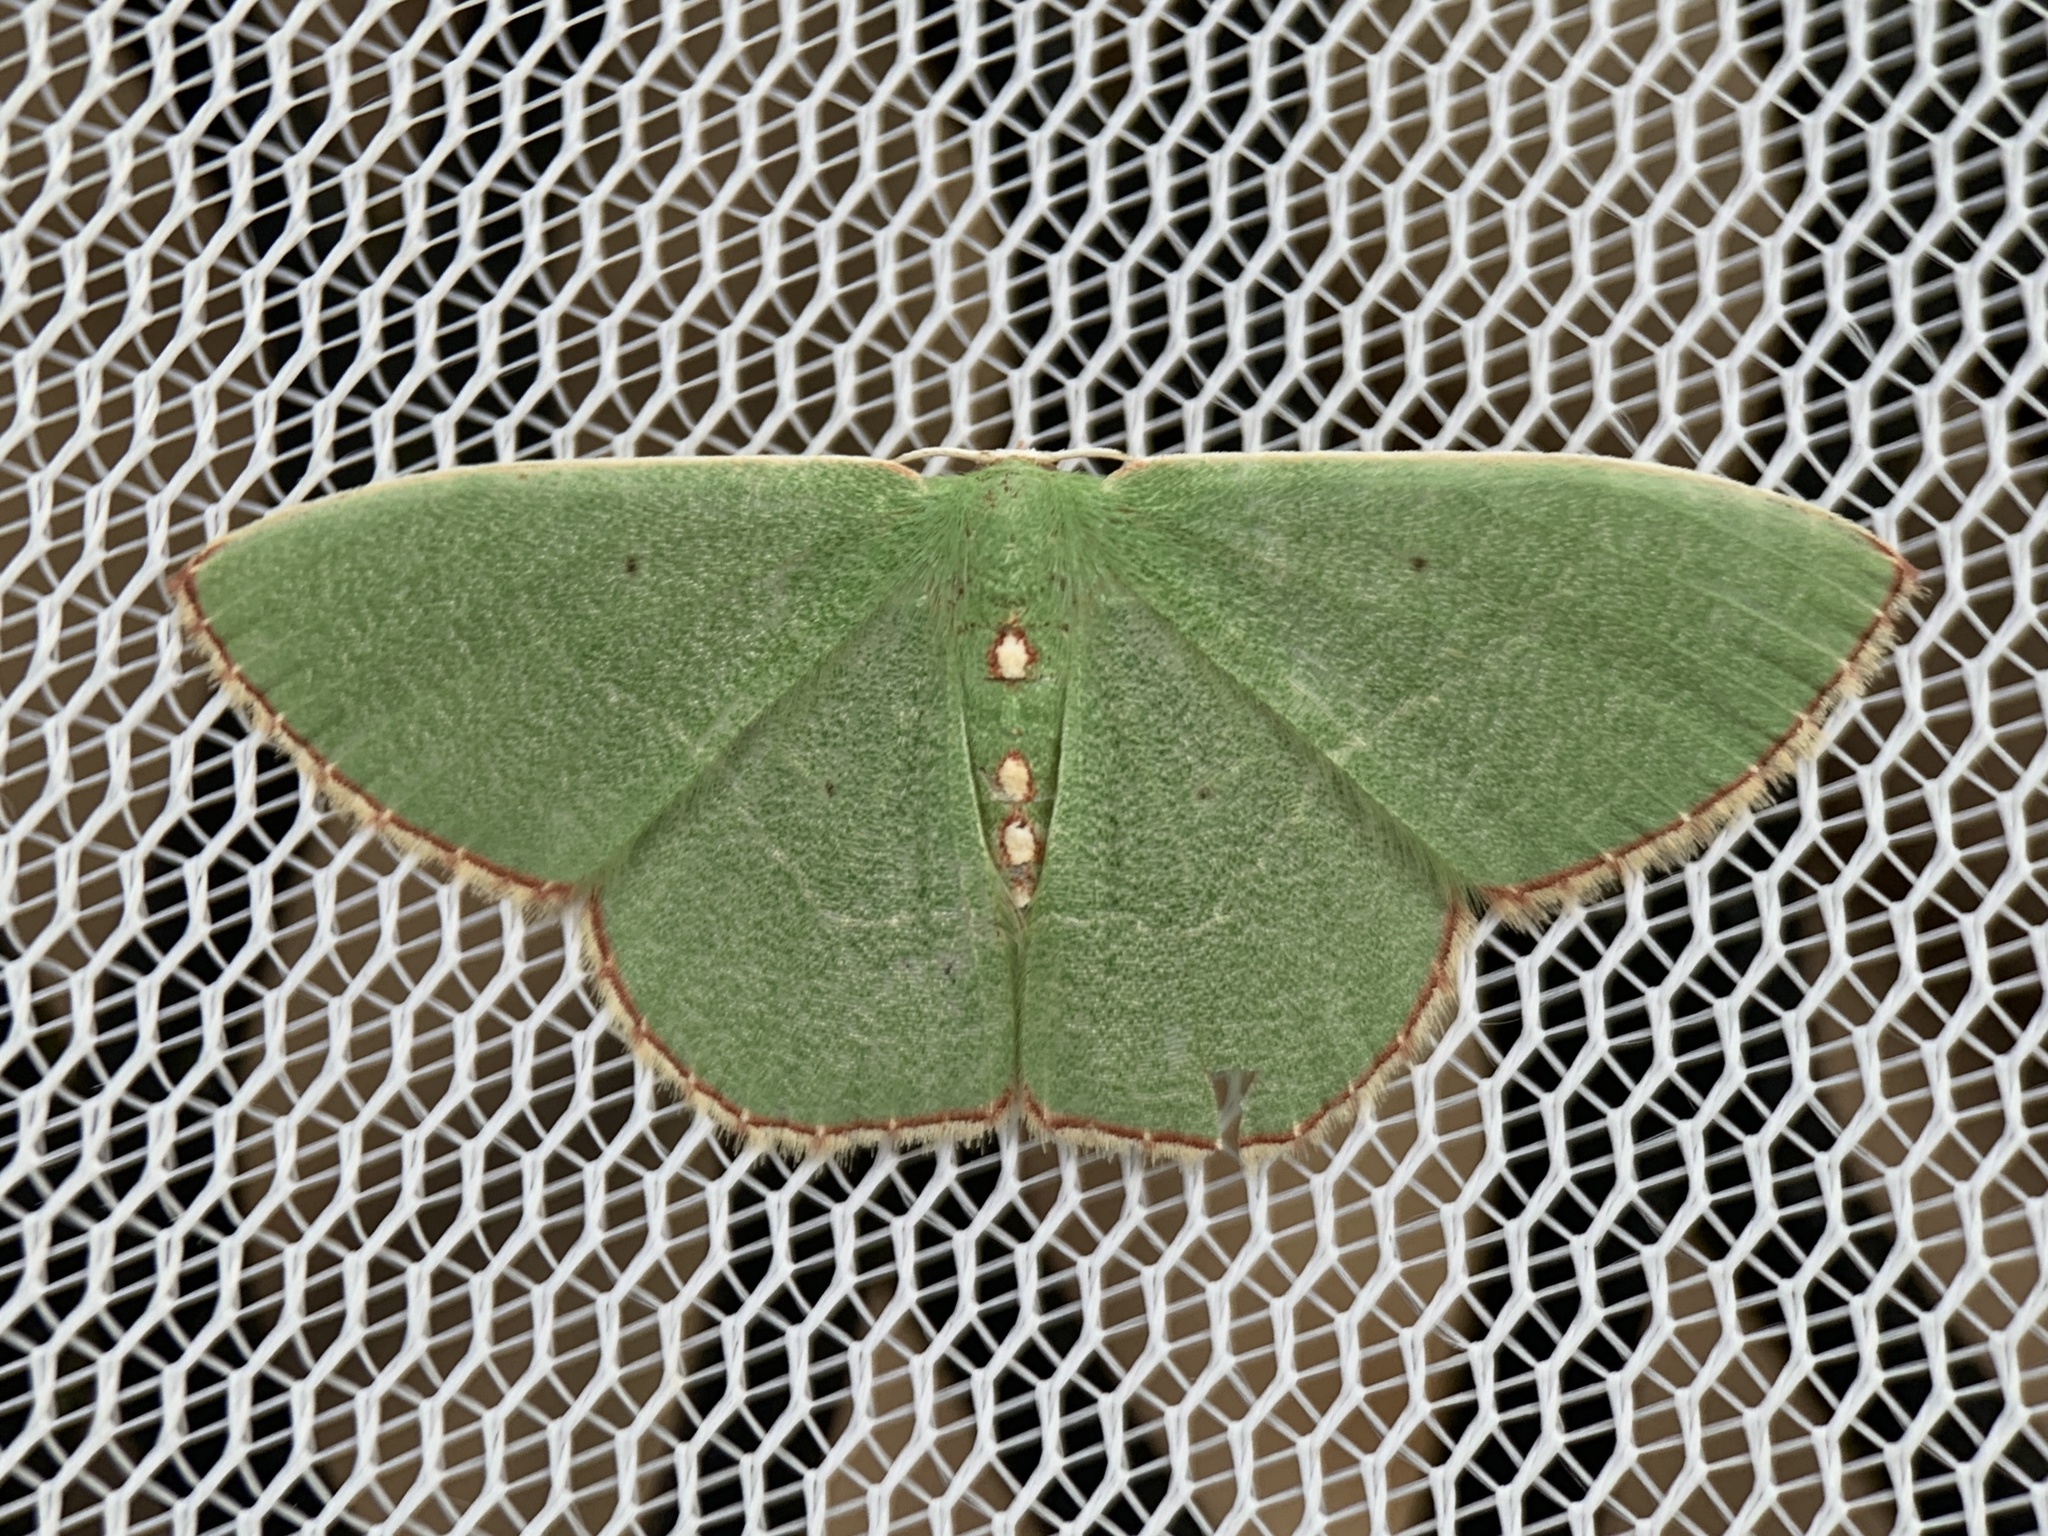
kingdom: Animalia
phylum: Arthropoda
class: Insecta
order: Lepidoptera
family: Geometridae
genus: Nemoria
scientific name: Nemoria lixaria
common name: Red-bordered emerald
